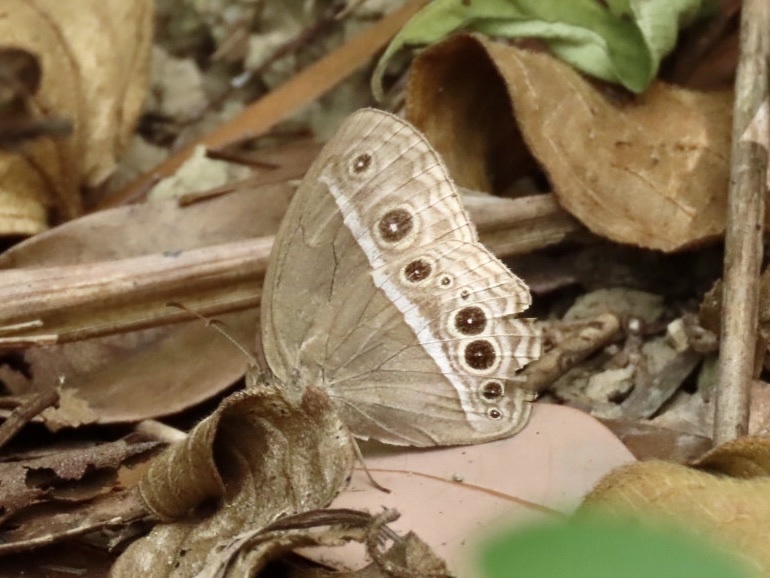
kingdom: Animalia
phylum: Arthropoda
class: Insecta
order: Lepidoptera
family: Nymphalidae
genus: Mycalesis
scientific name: Mycalesis mineus
